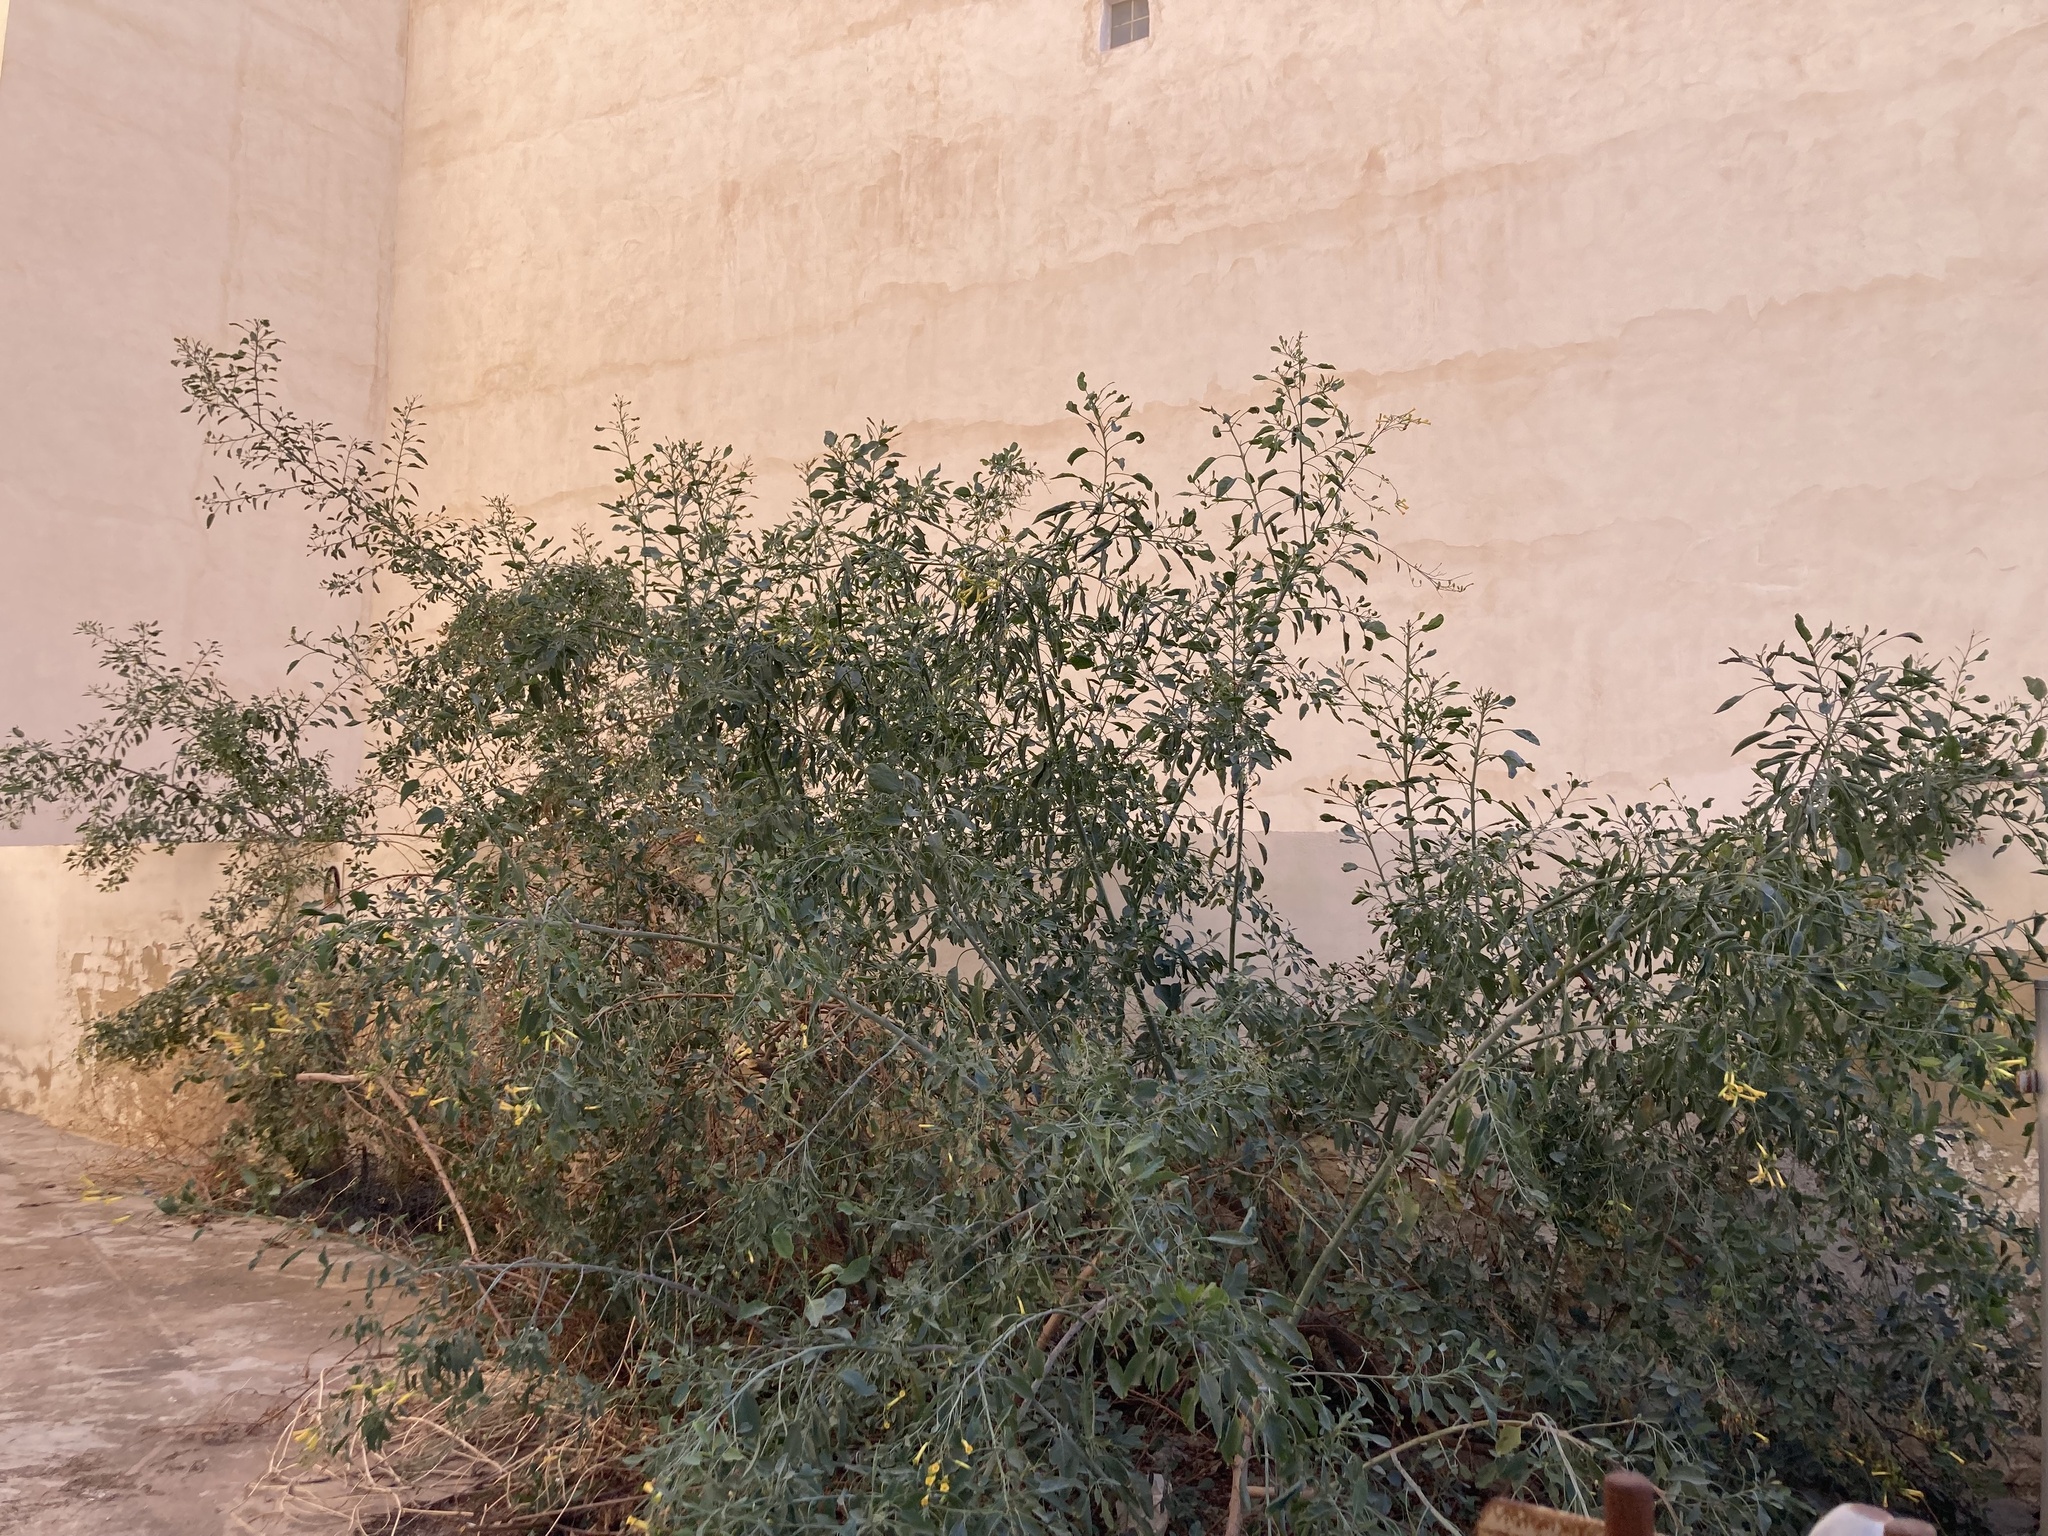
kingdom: Plantae
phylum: Tracheophyta
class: Magnoliopsida
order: Solanales
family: Solanaceae
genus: Nicotiana
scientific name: Nicotiana glauca
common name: Tree tobacco
